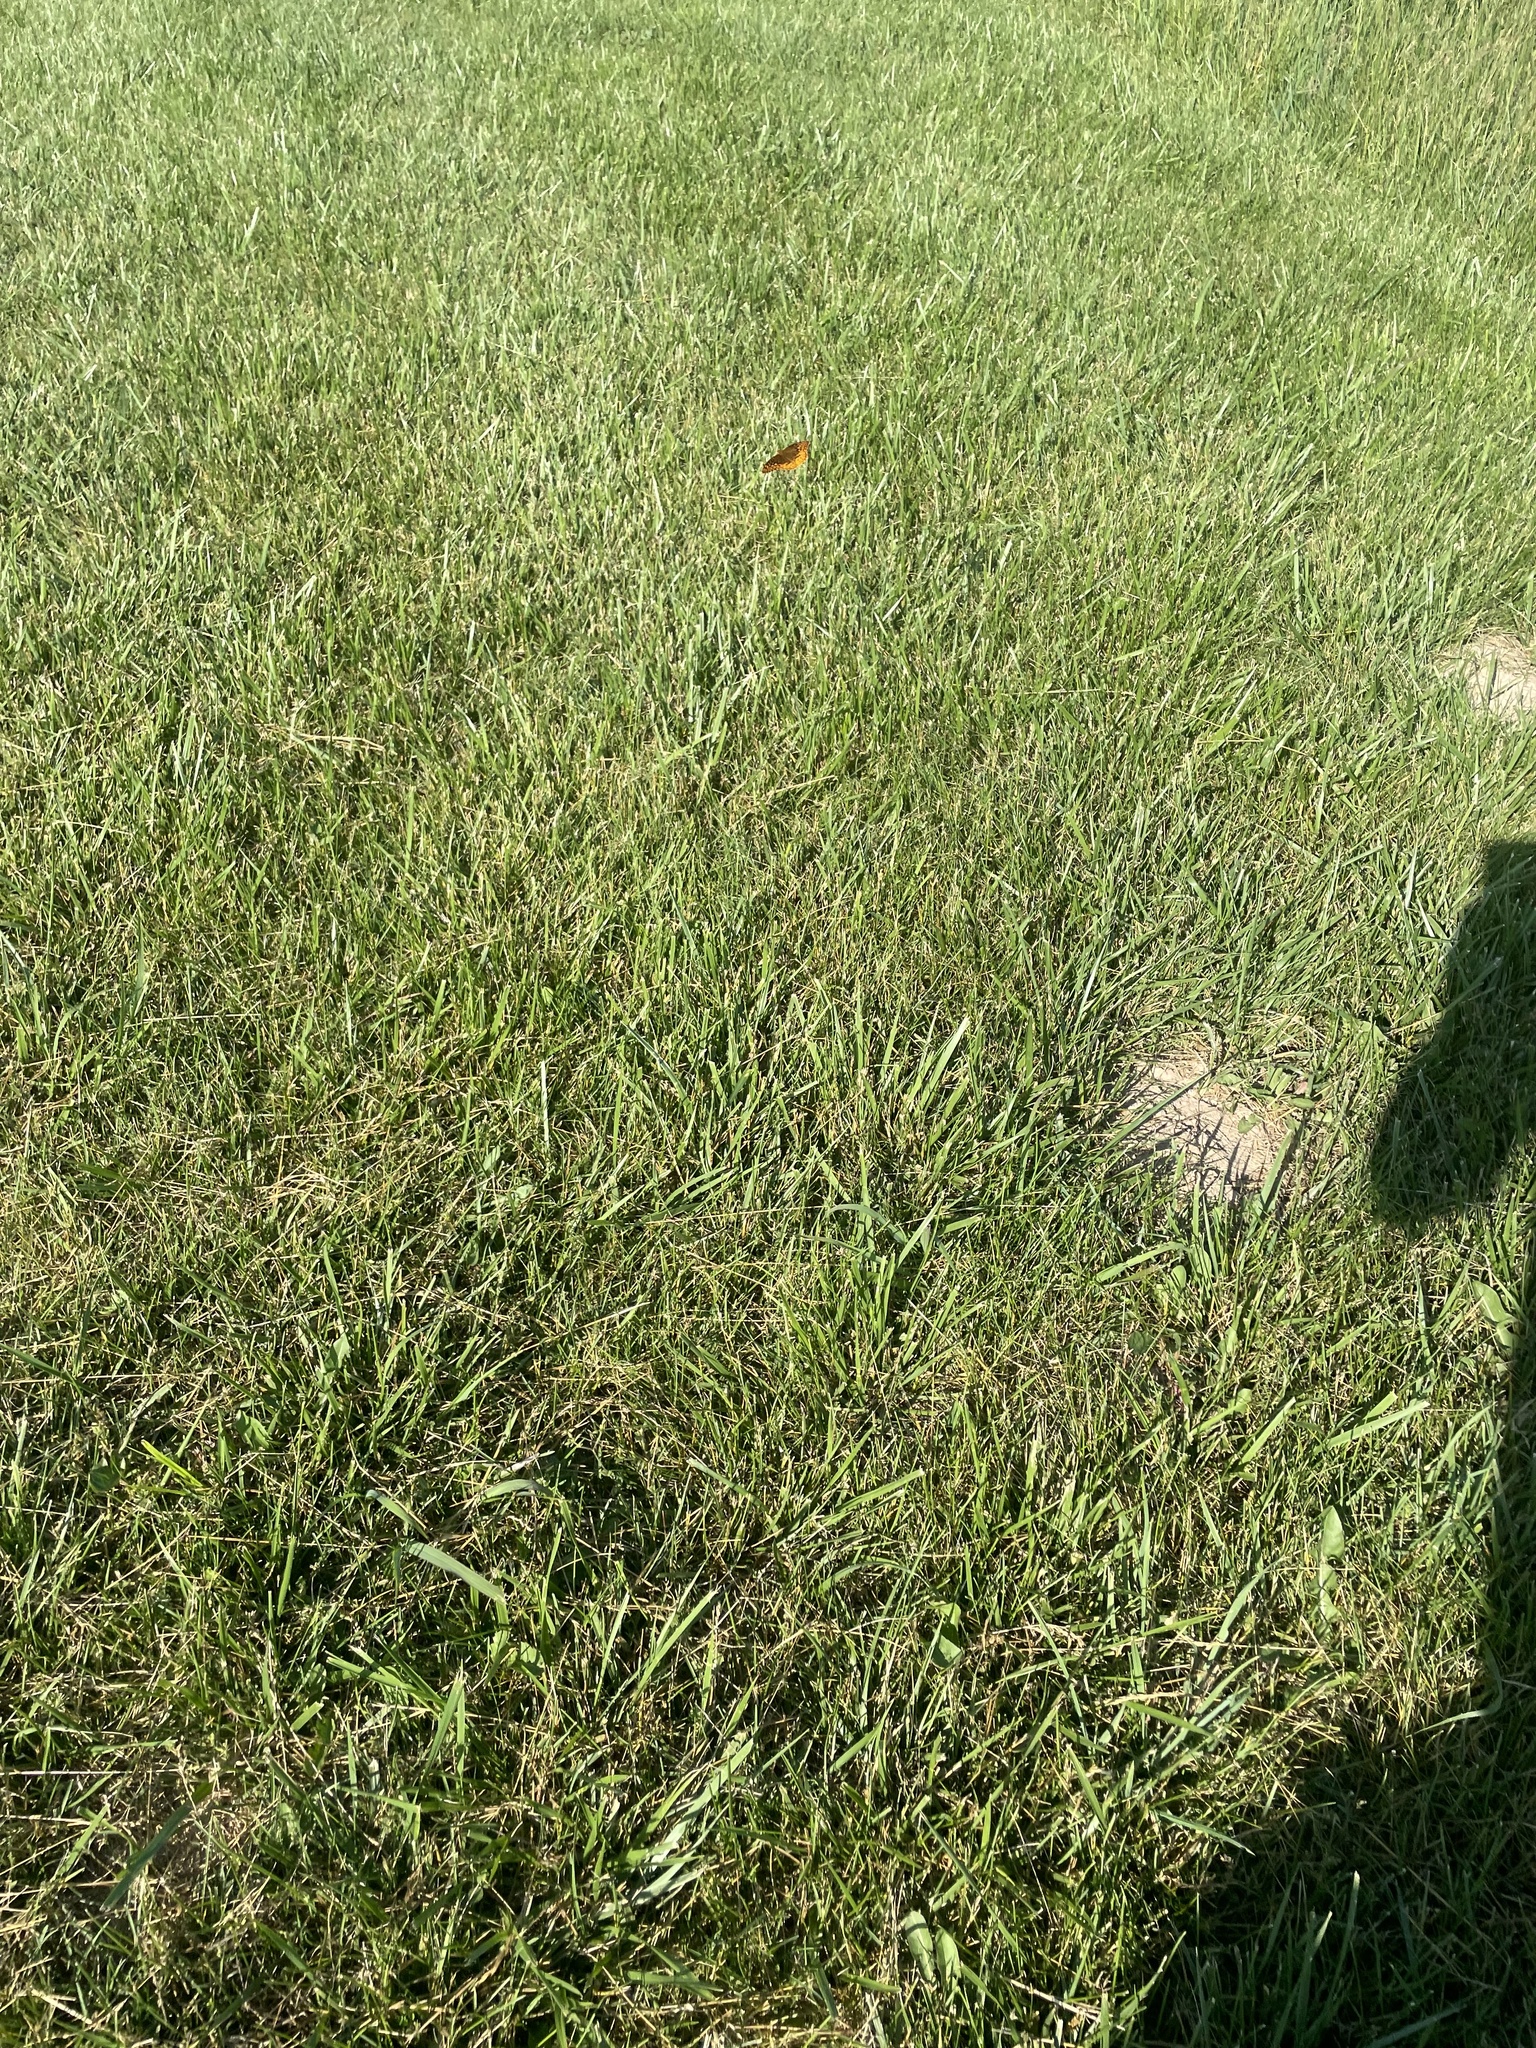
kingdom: Animalia
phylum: Arthropoda
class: Insecta
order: Lepidoptera
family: Nymphalidae
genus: Speyeria
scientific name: Speyeria cybele
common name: Great spangled fritillary
